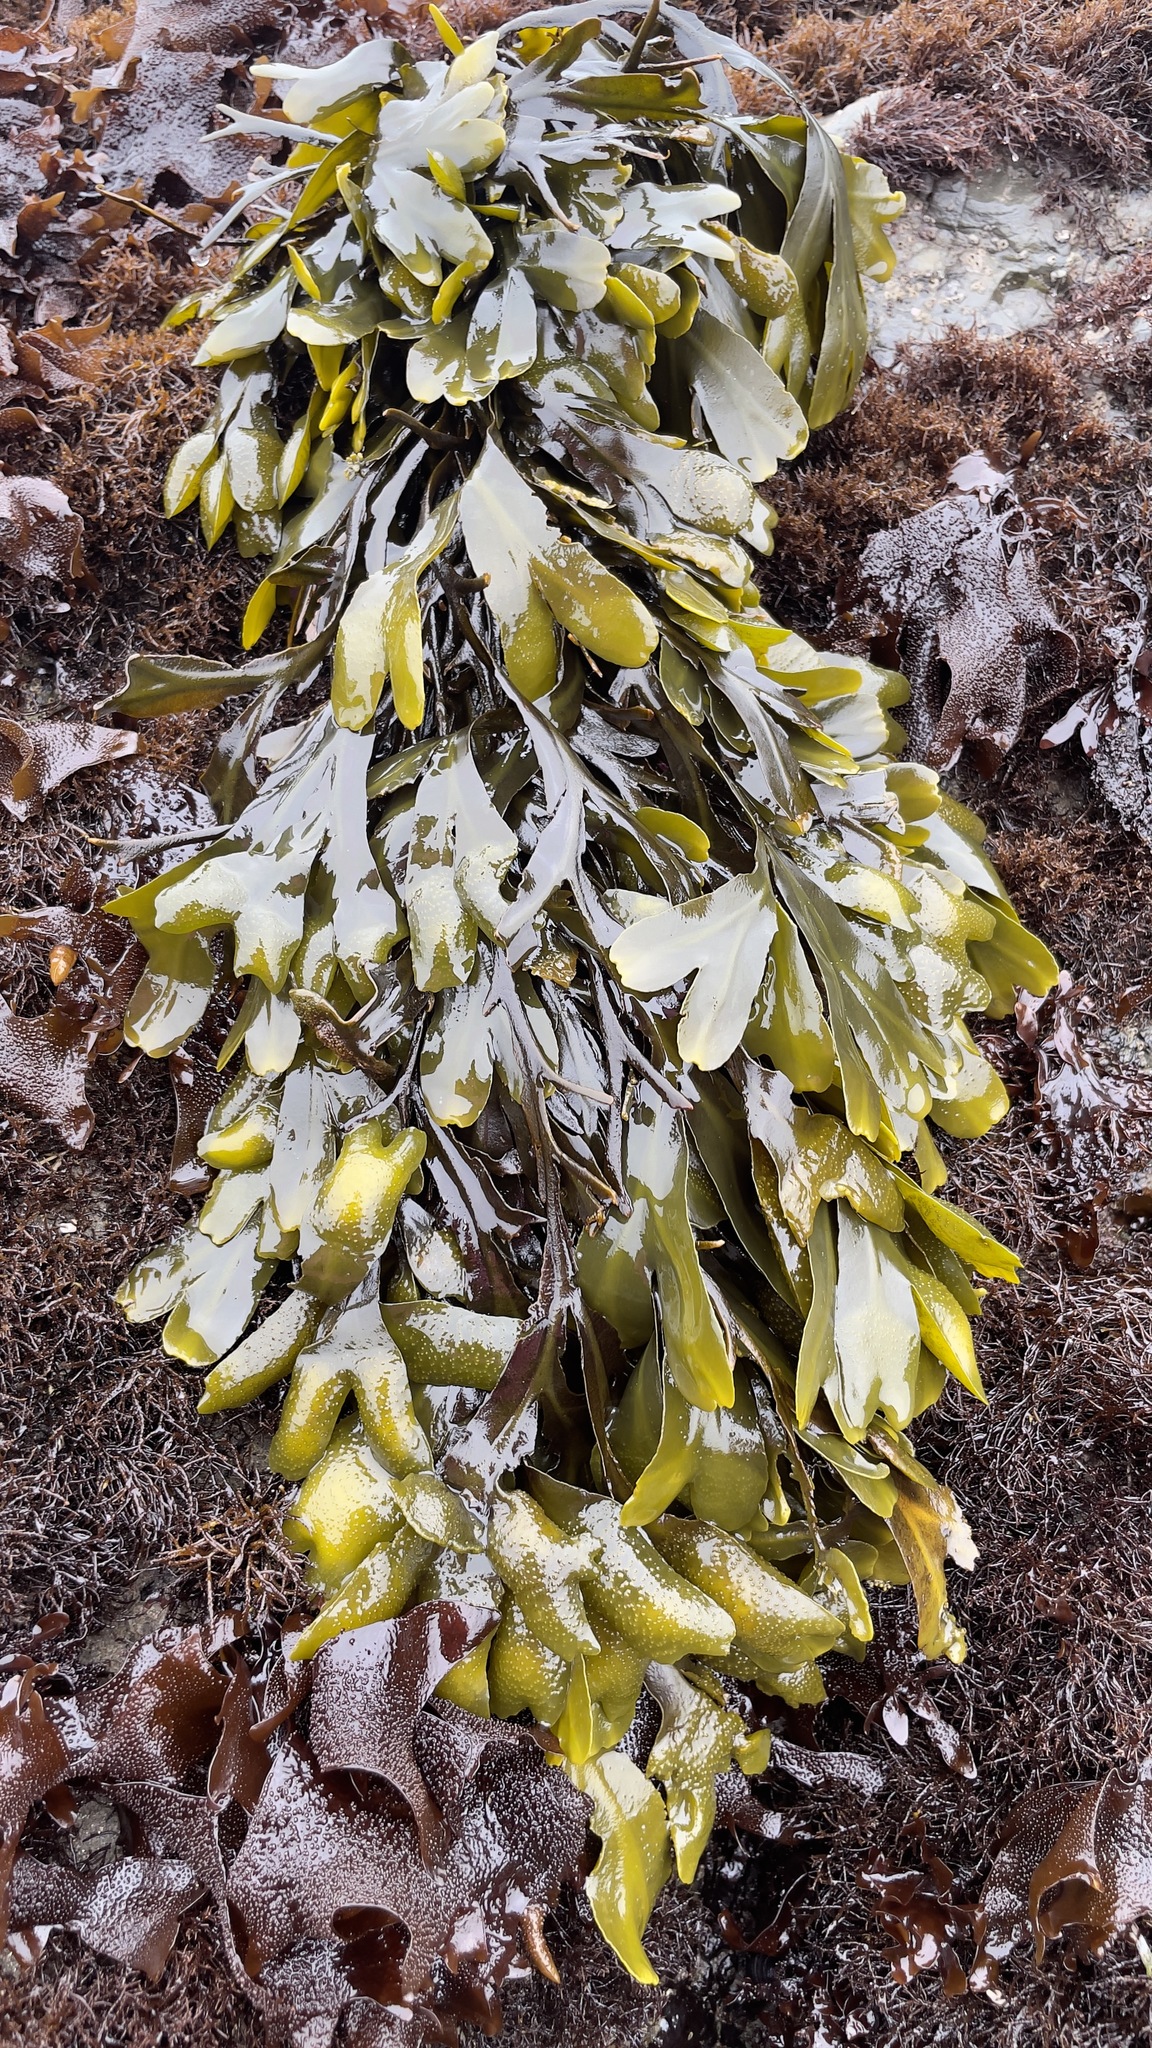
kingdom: Chromista
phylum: Ochrophyta
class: Phaeophyceae
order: Fucales
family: Fucaceae
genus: Fucus
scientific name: Fucus distichus
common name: Rockweed
